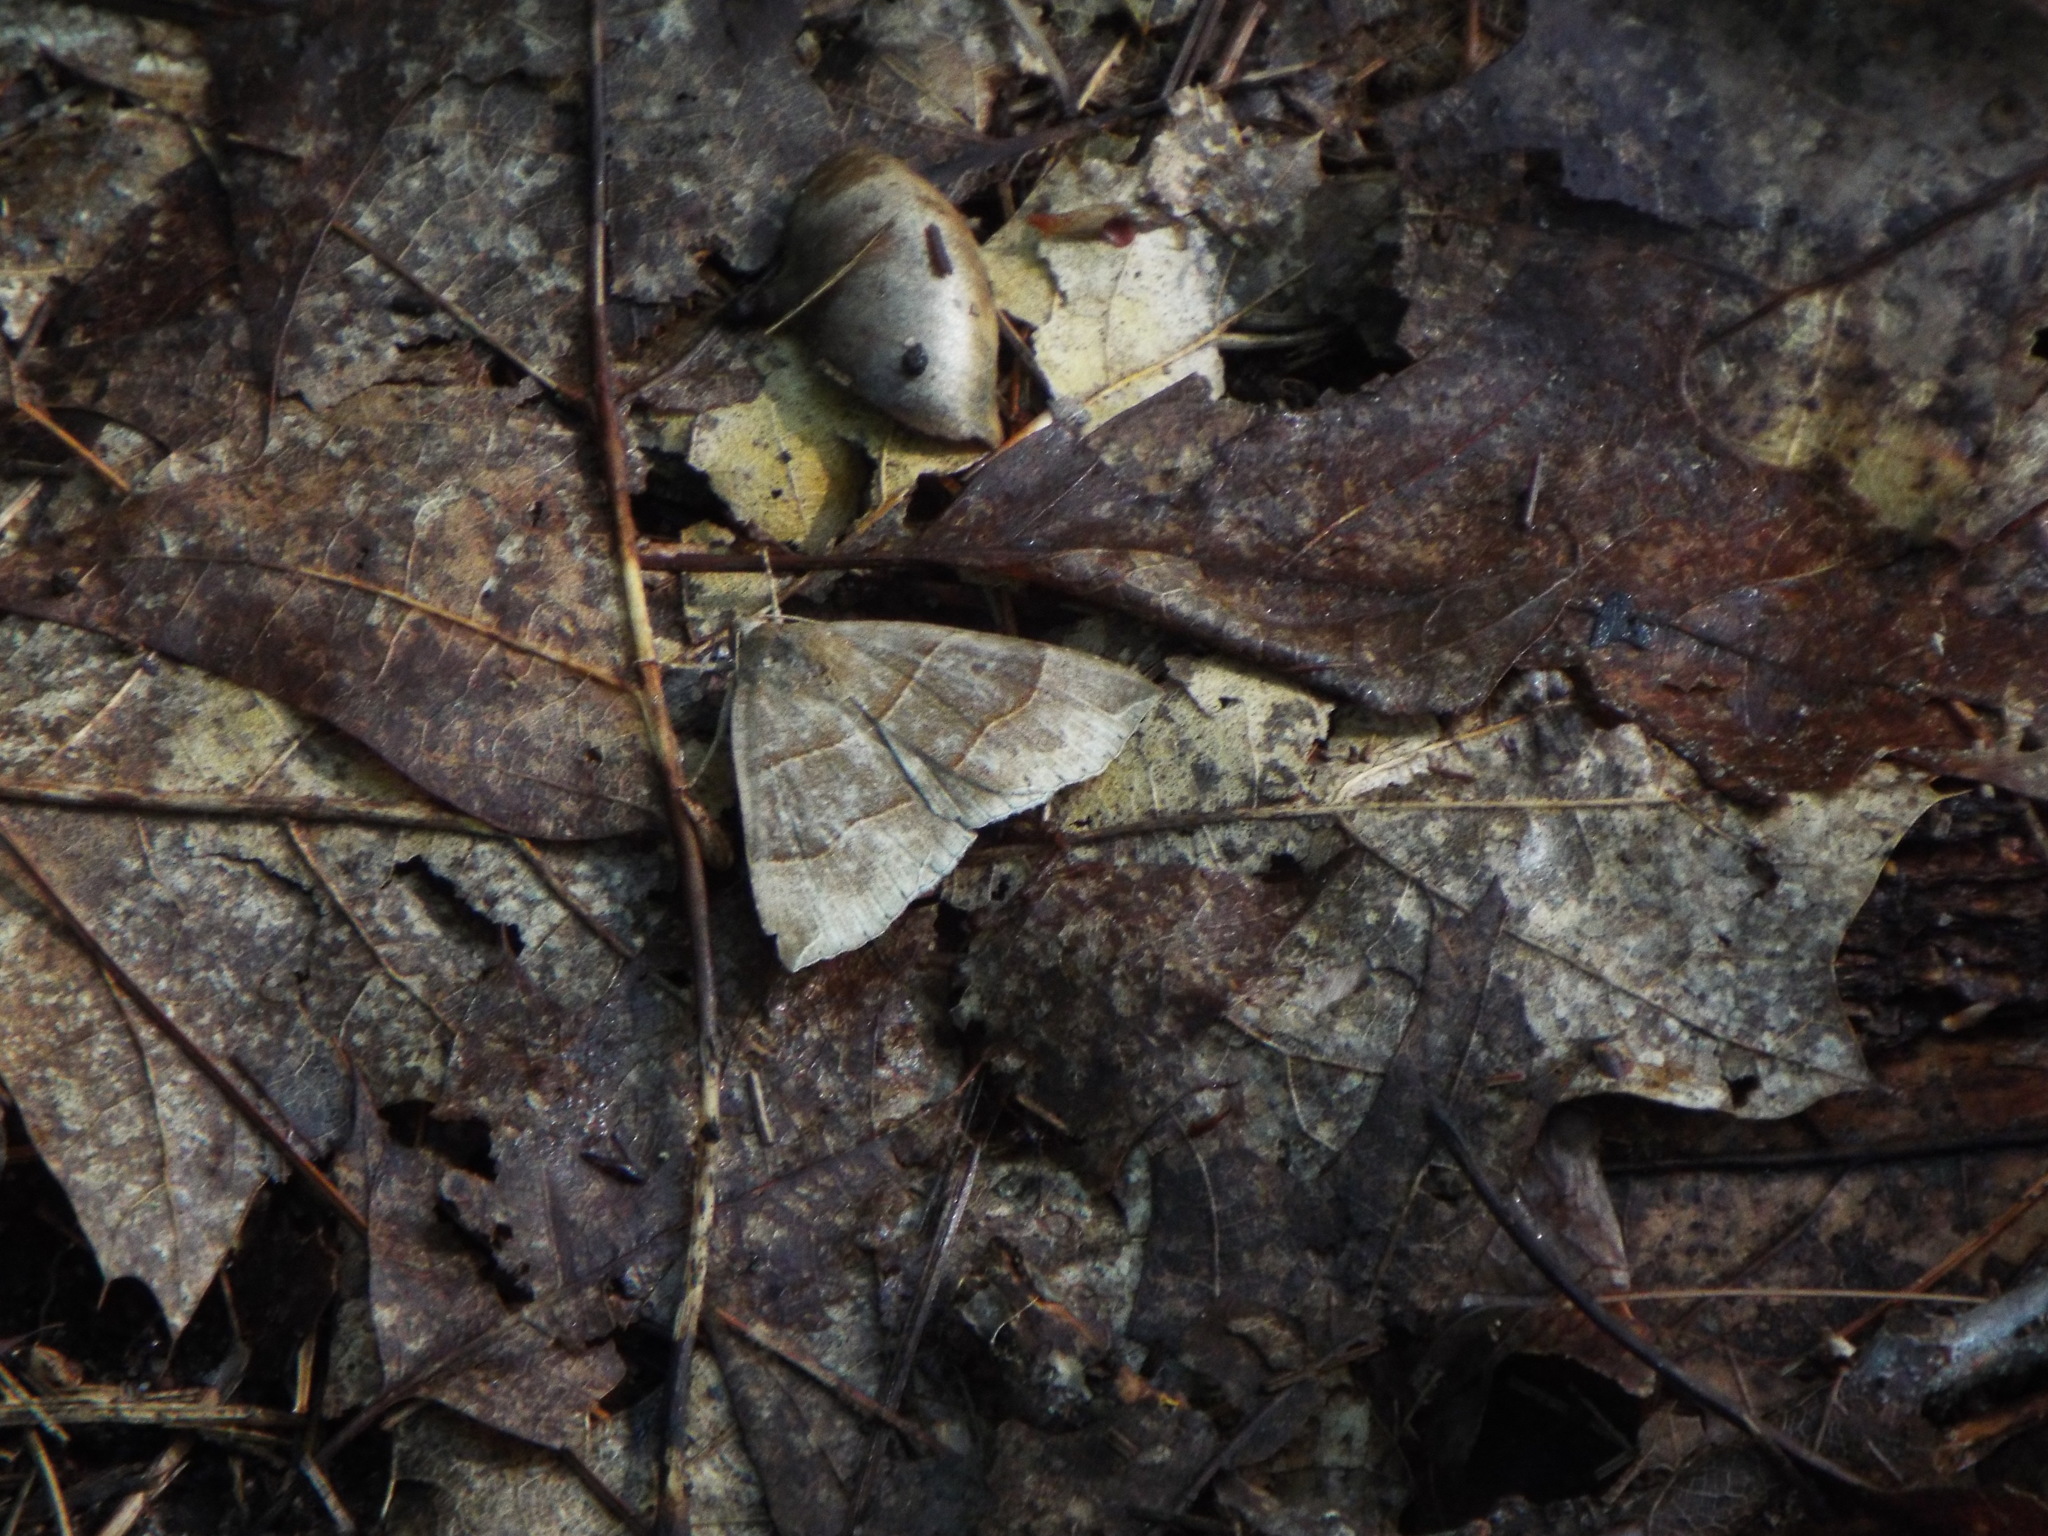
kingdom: Animalia
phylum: Arthropoda
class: Insecta
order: Lepidoptera
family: Erebidae
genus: Parallelia
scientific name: Parallelia bistriaris
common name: Maple looper moth
